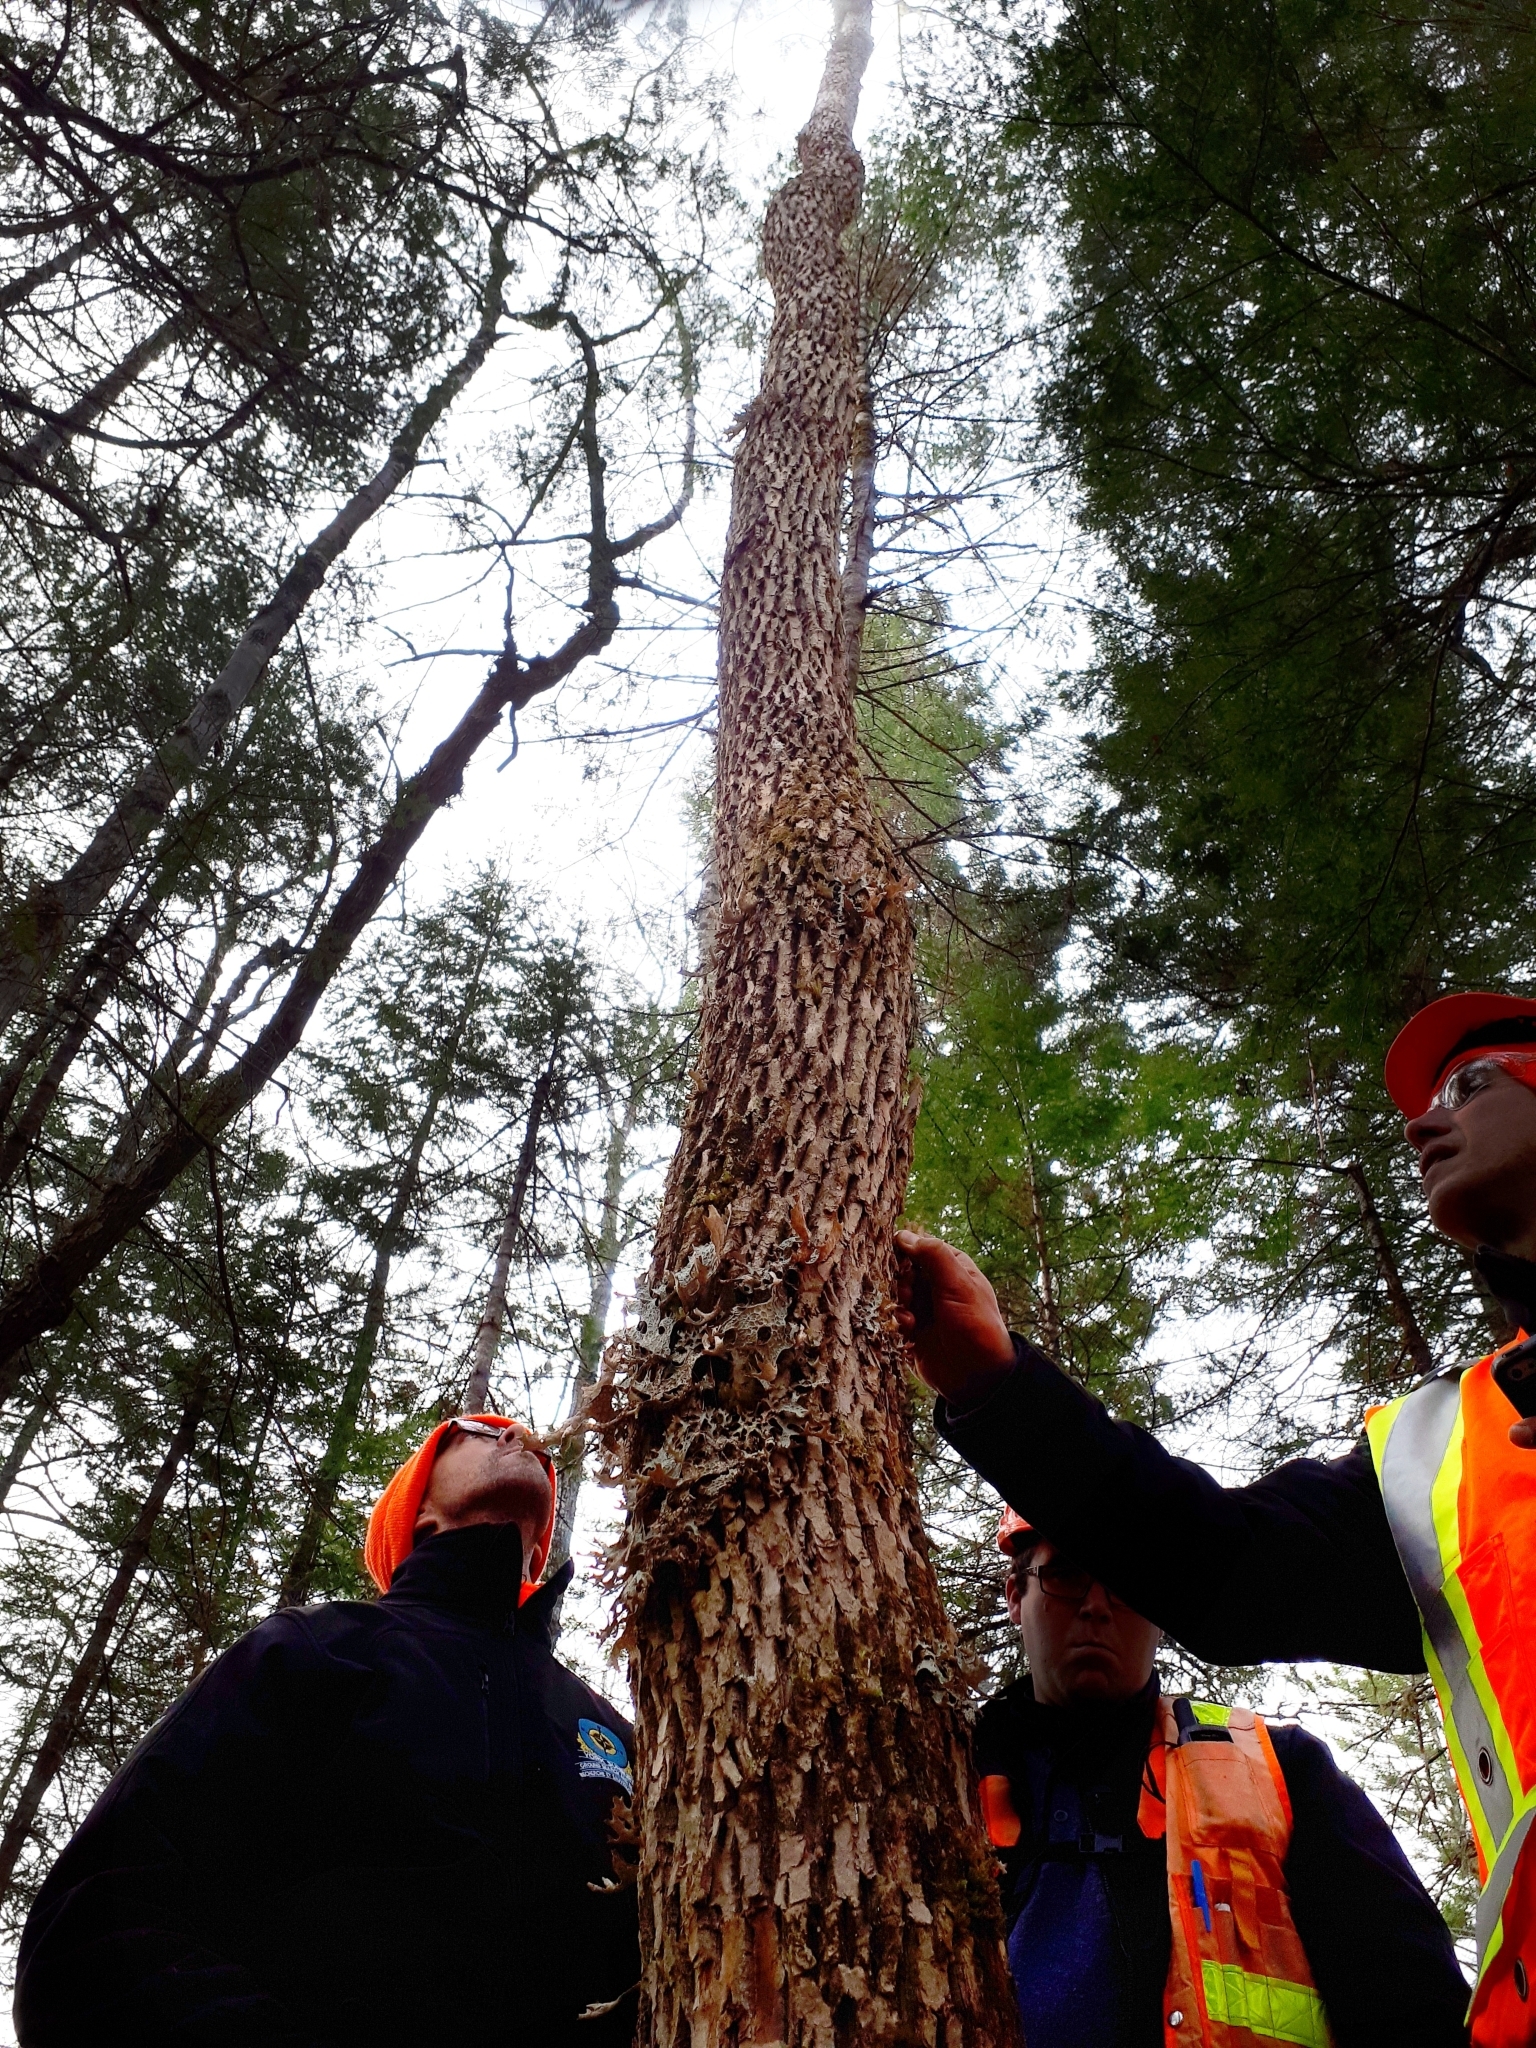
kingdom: Plantae
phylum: Tracheophyta
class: Magnoliopsida
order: Lamiales
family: Oleaceae
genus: Fraxinus
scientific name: Fraxinus nigra
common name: Black ash
